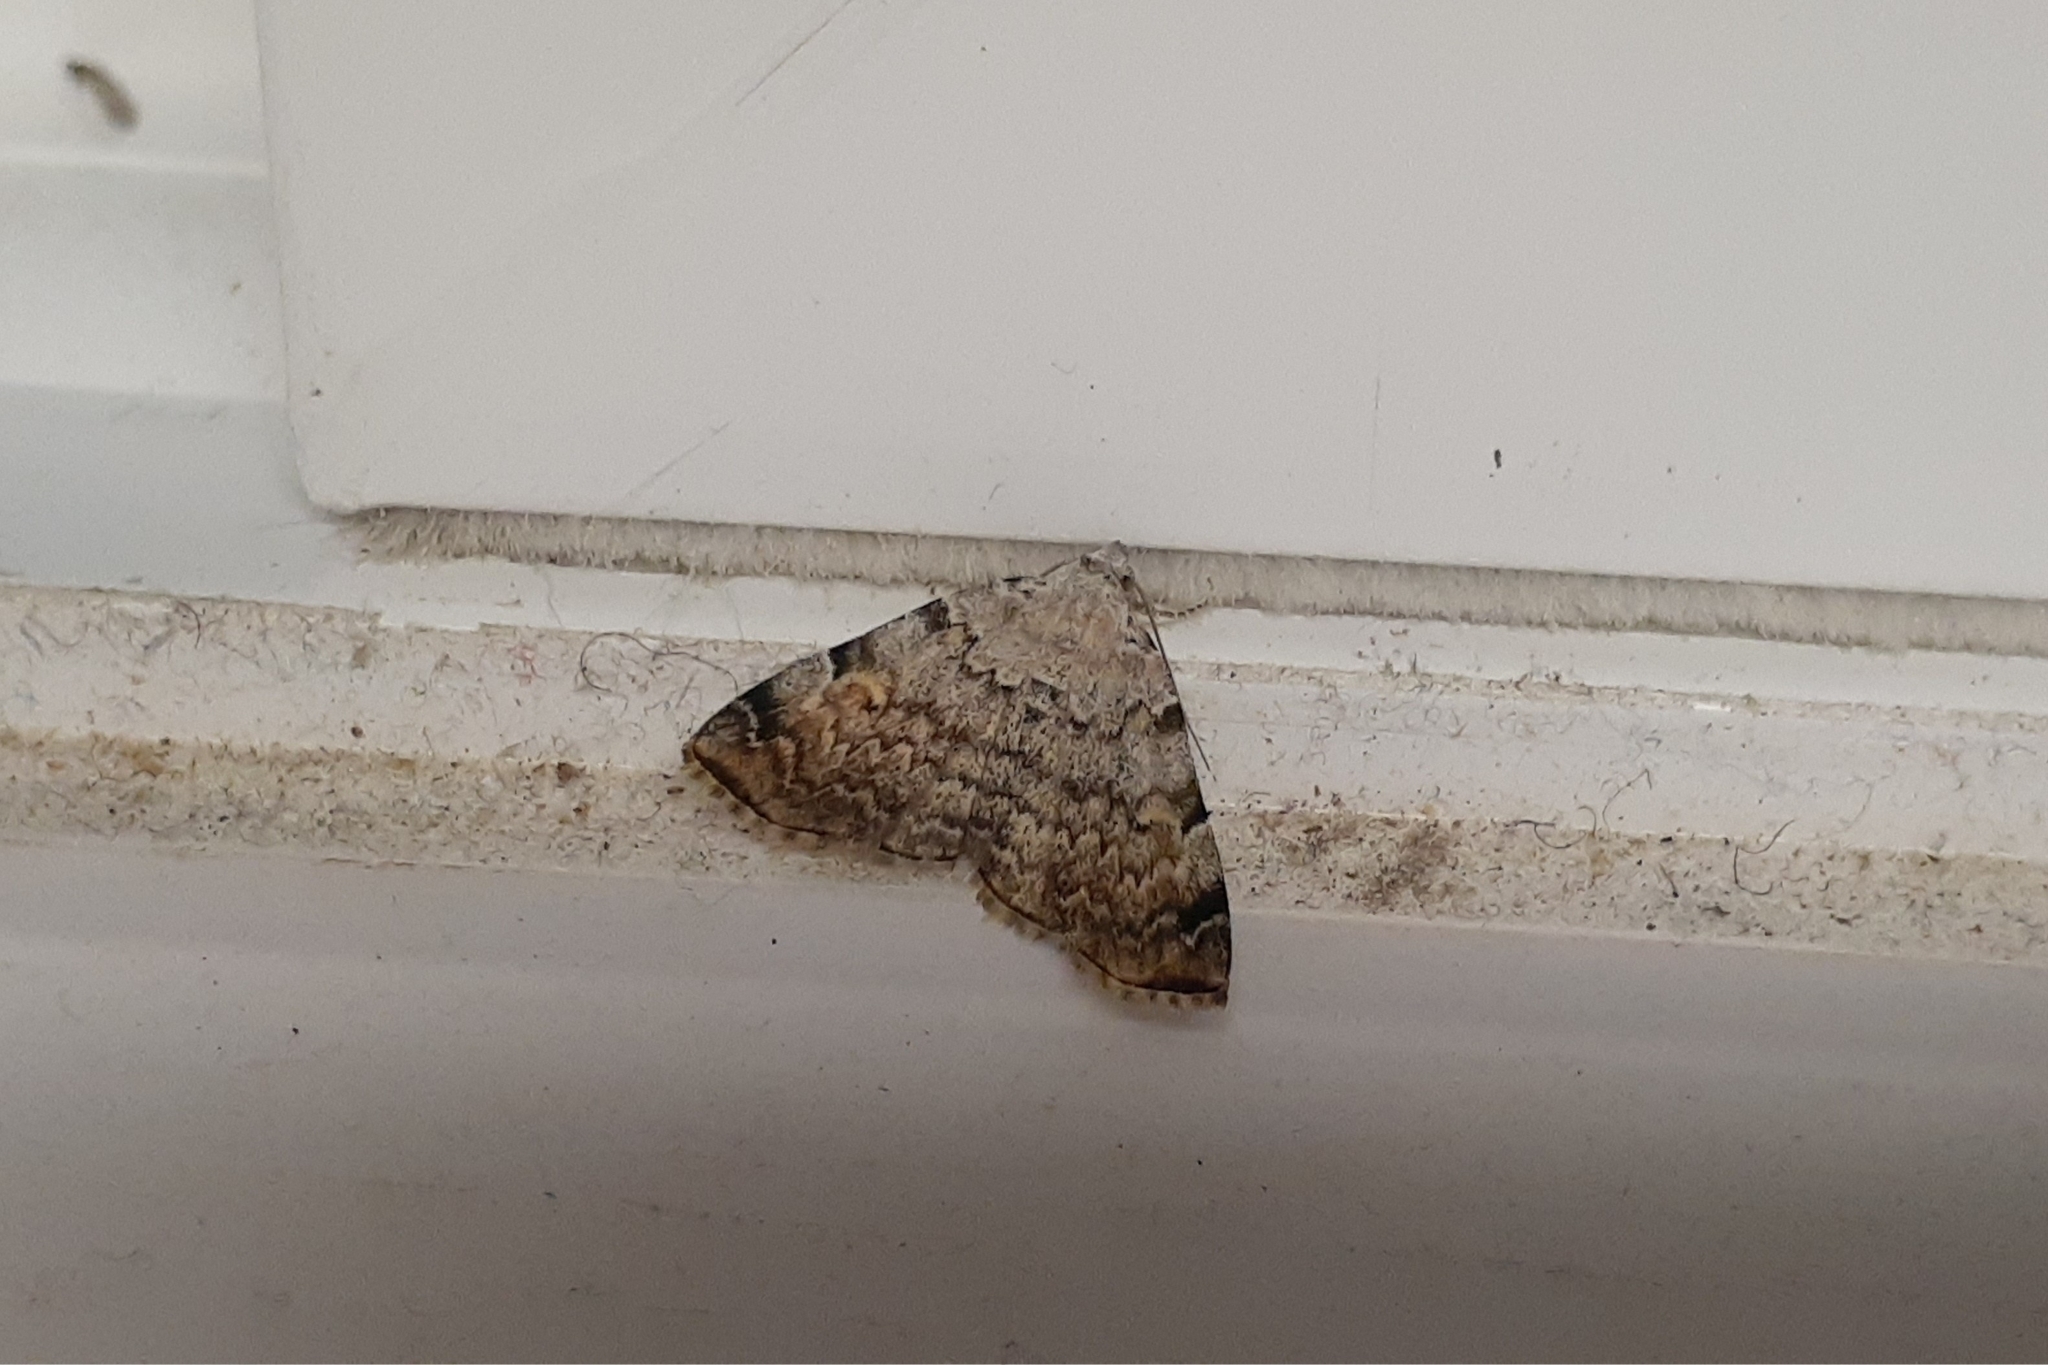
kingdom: Animalia
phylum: Arthropoda
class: Insecta
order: Lepidoptera
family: Erebidae
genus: Idia
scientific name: Idia americalis
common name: American idia moth
